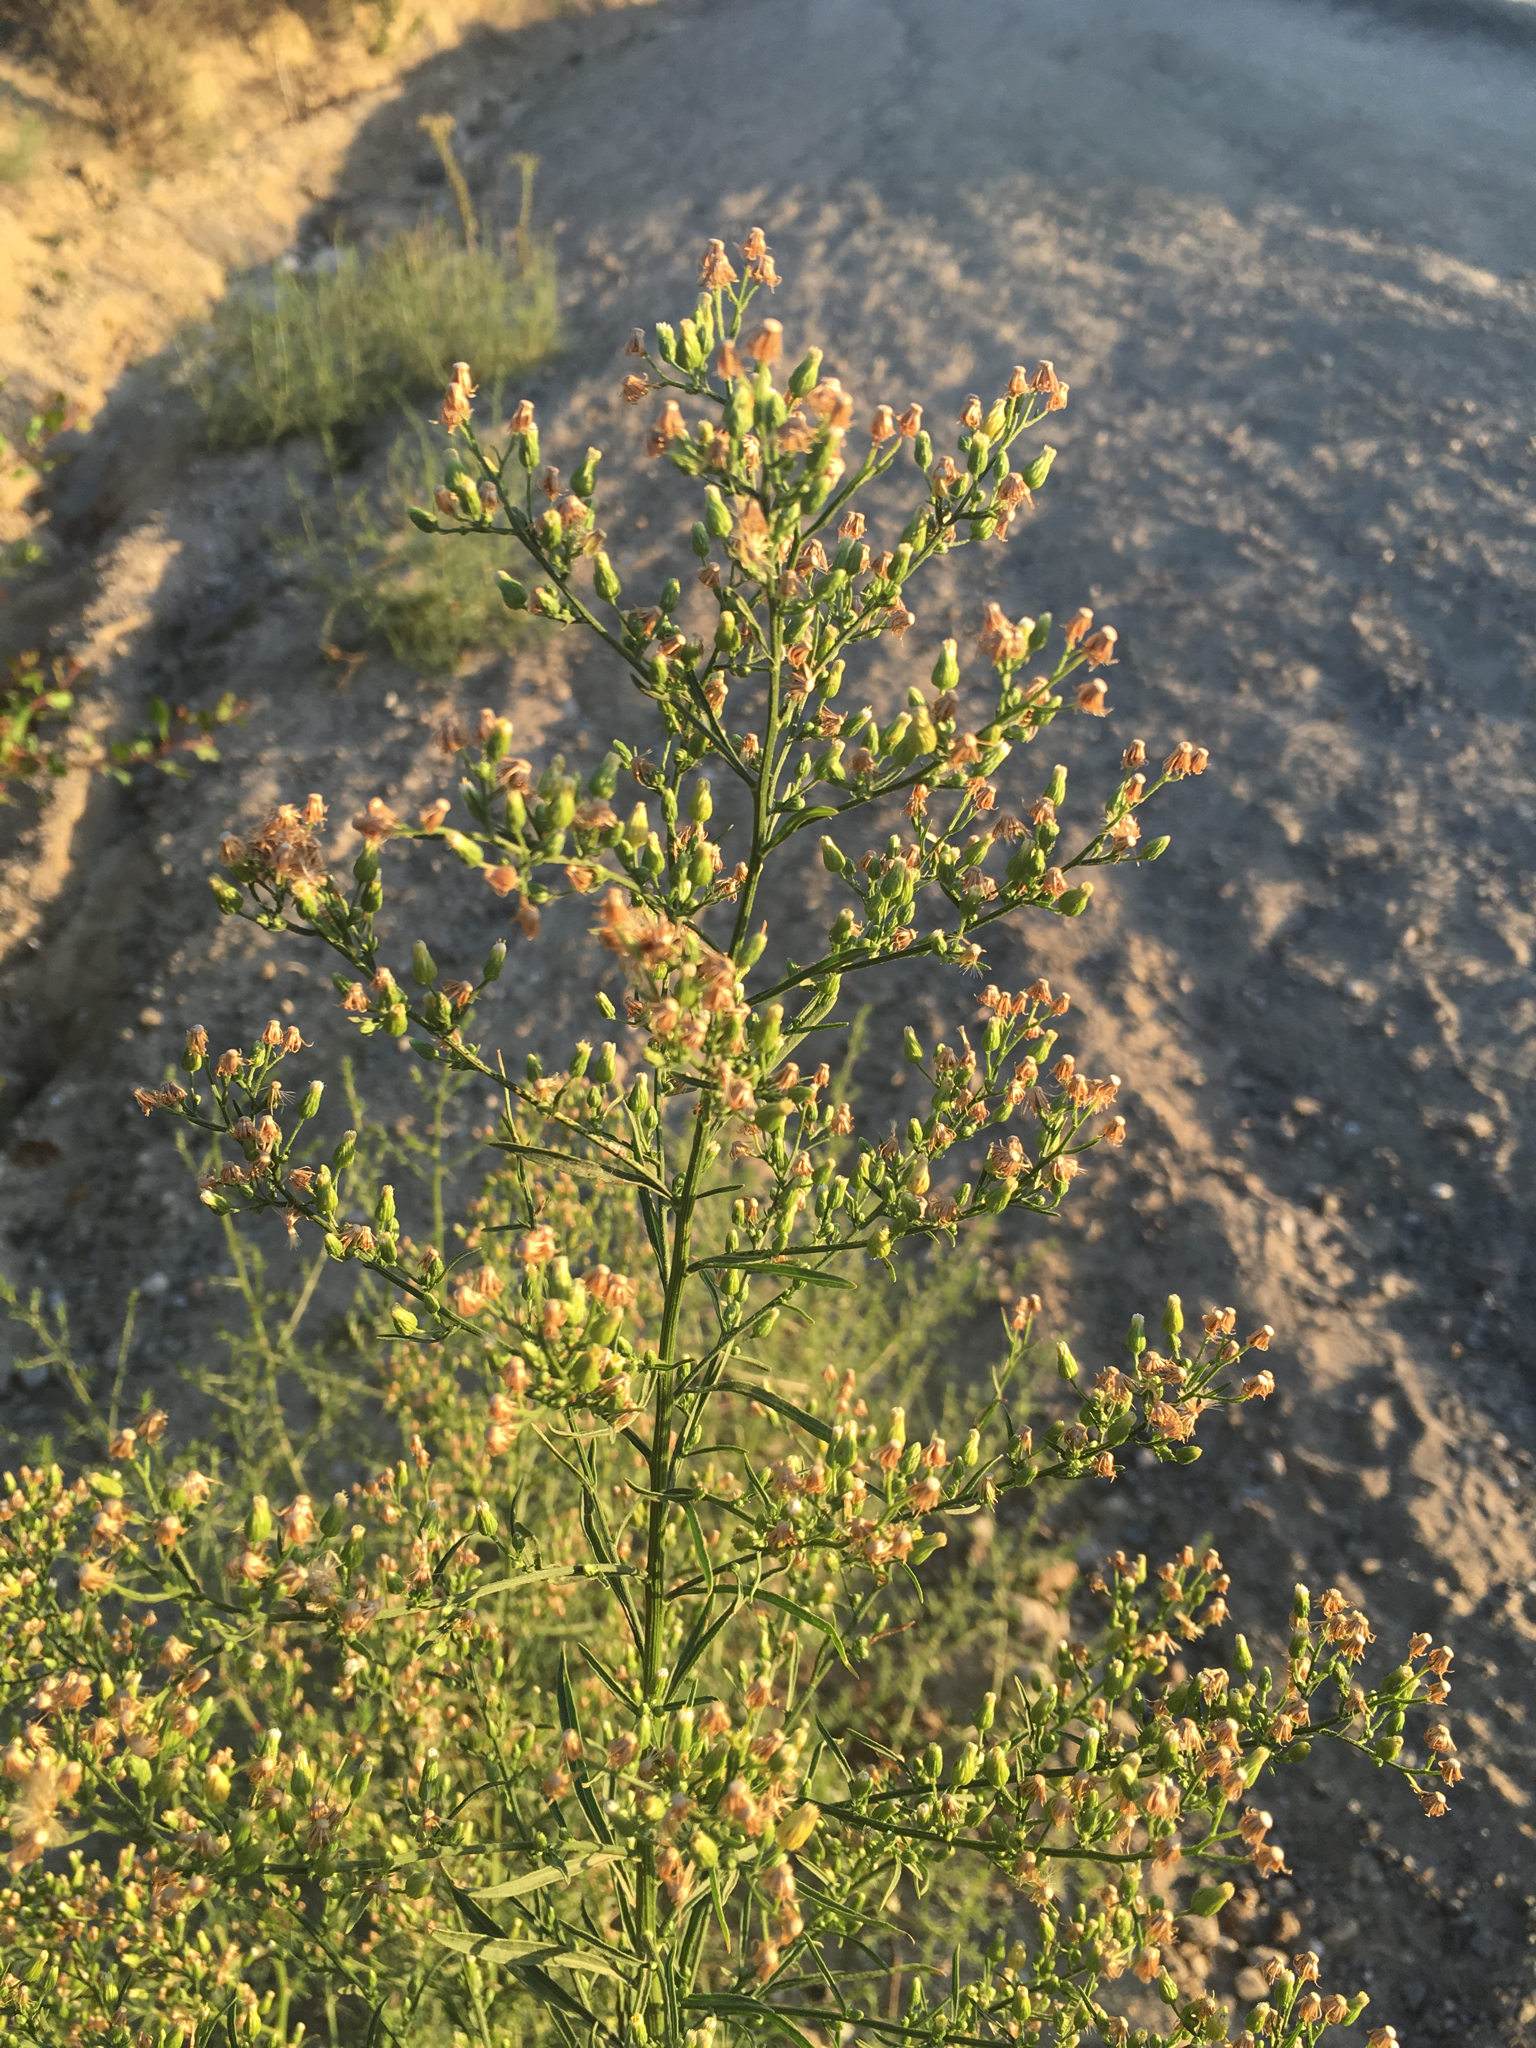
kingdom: Plantae
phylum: Tracheophyta
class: Magnoliopsida
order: Asterales
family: Asteraceae
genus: Erigeron
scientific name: Erigeron canadensis
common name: Canadian fleabane
